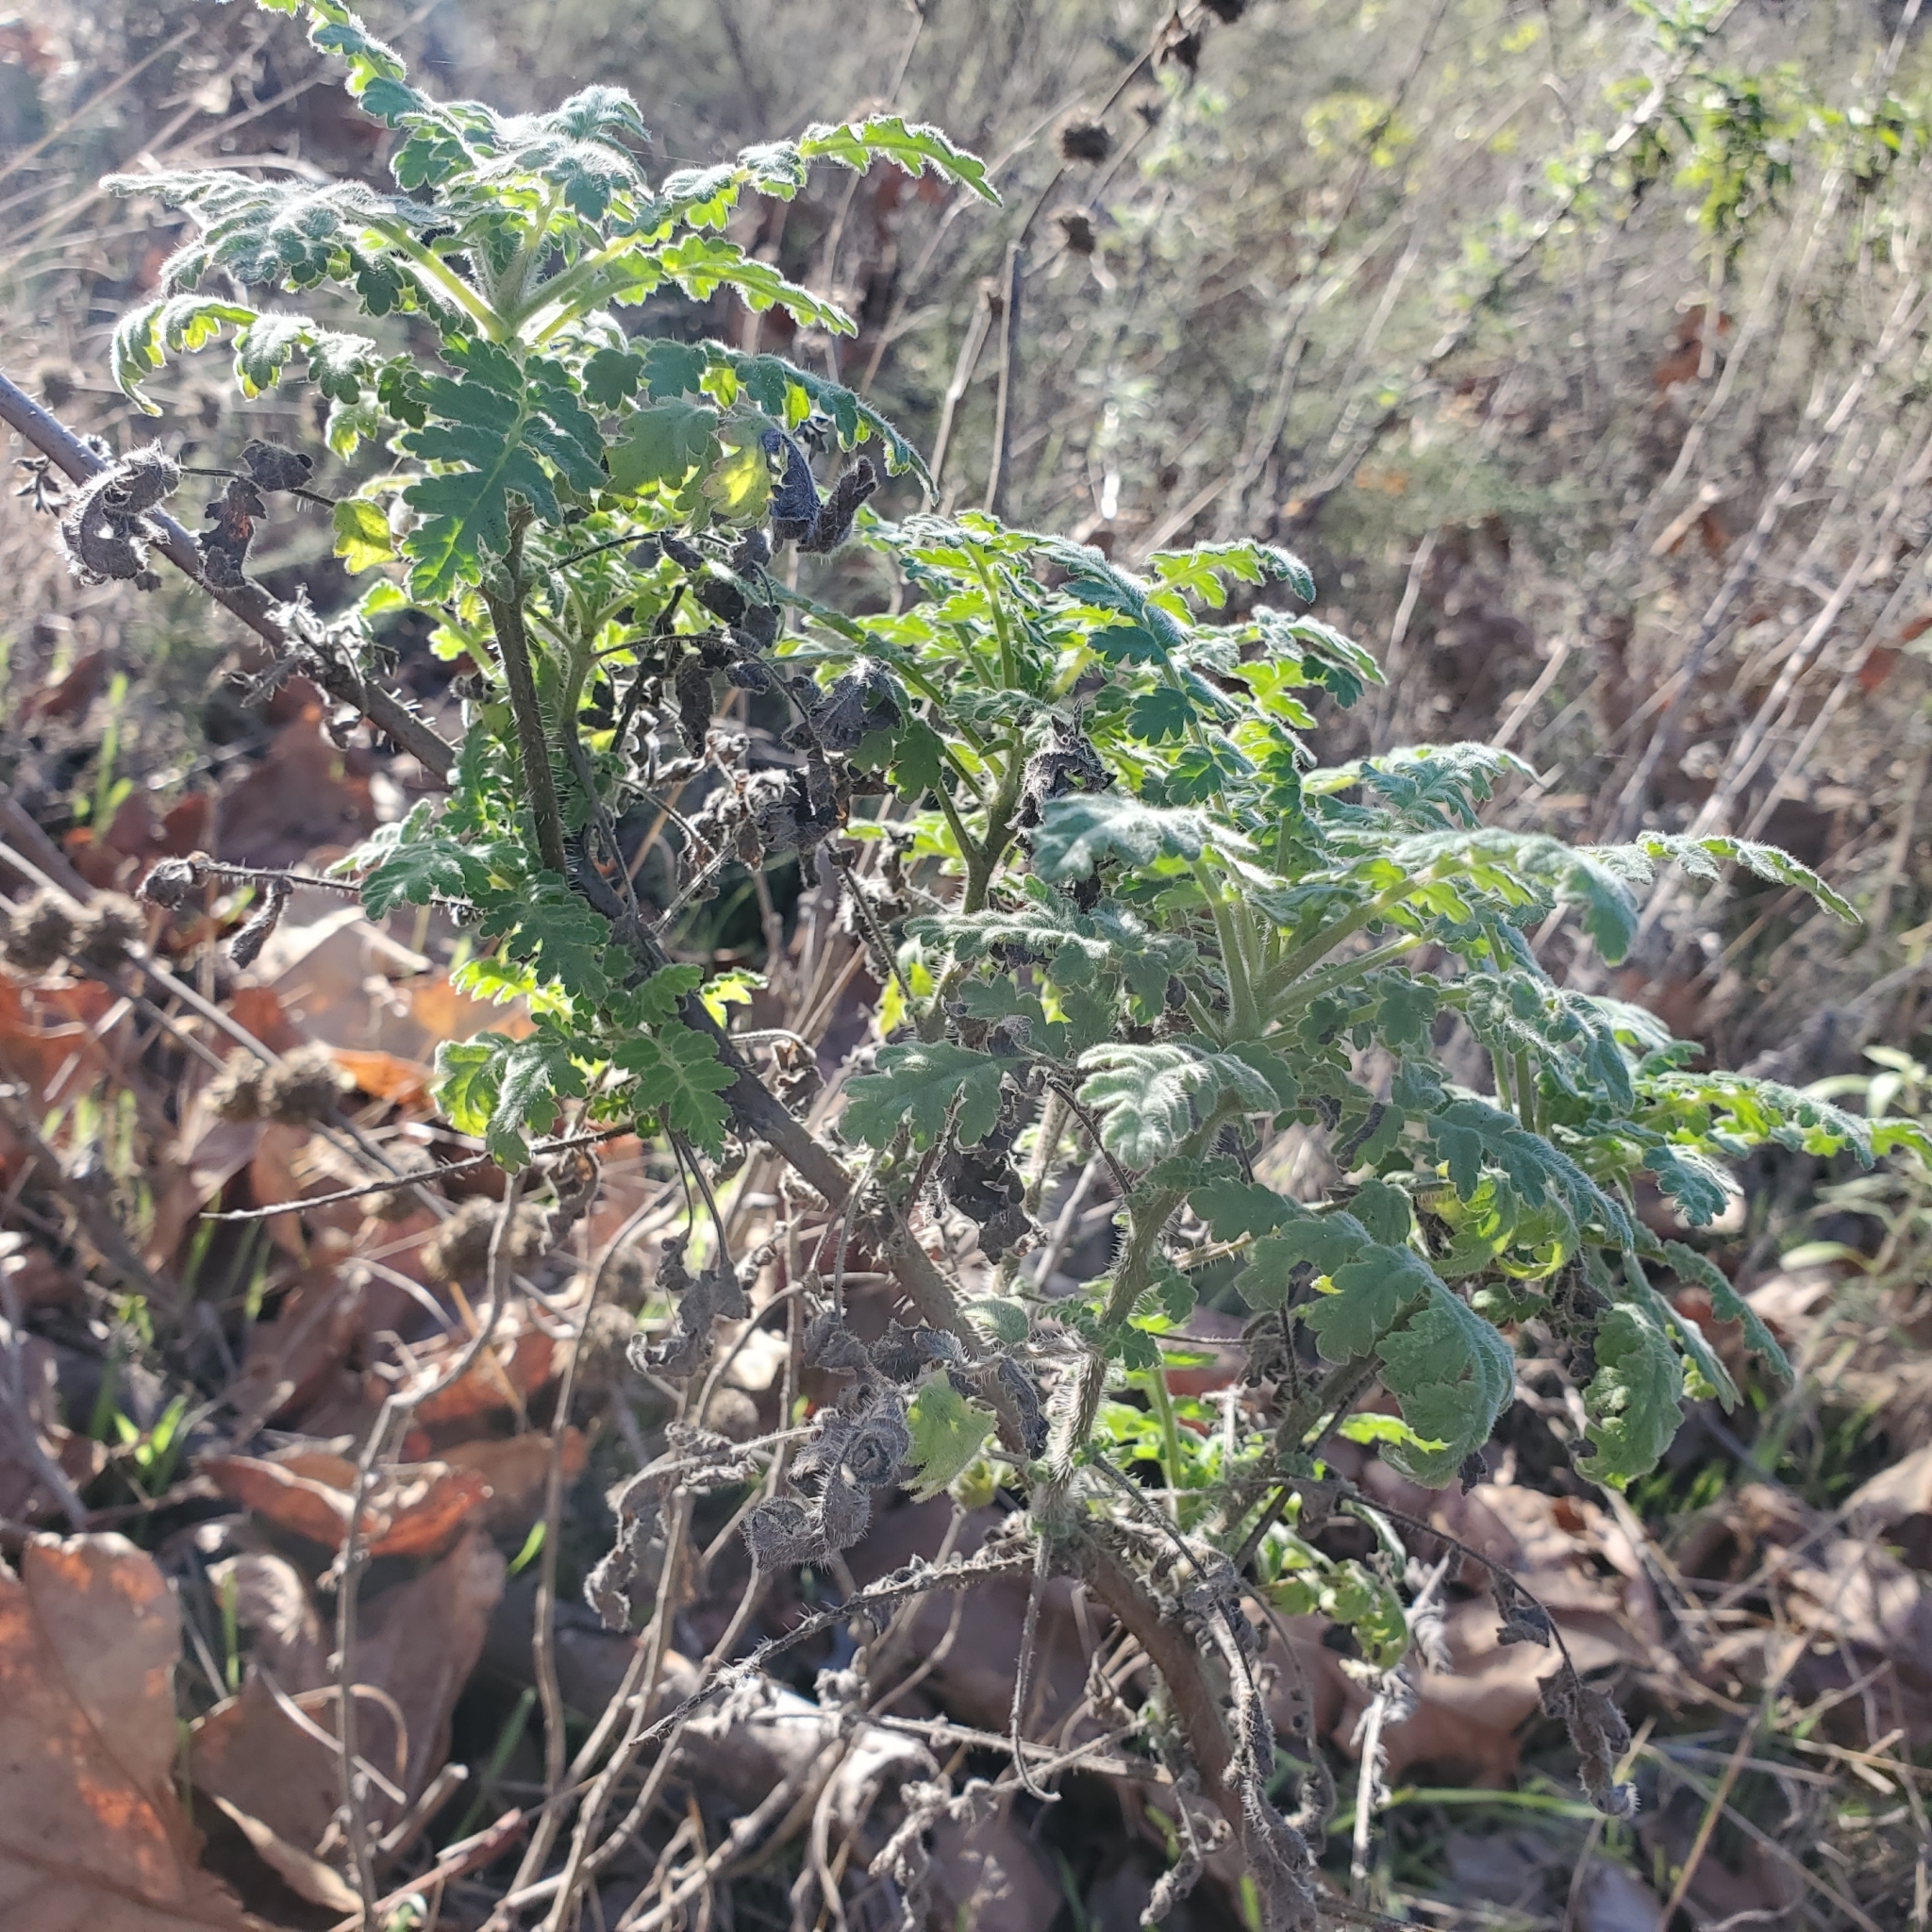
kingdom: Plantae
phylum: Tracheophyta
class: Magnoliopsida
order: Boraginales
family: Hydrophyllaceae
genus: Phacelia
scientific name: Phacelia ramosissima
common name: Branching phacelia
